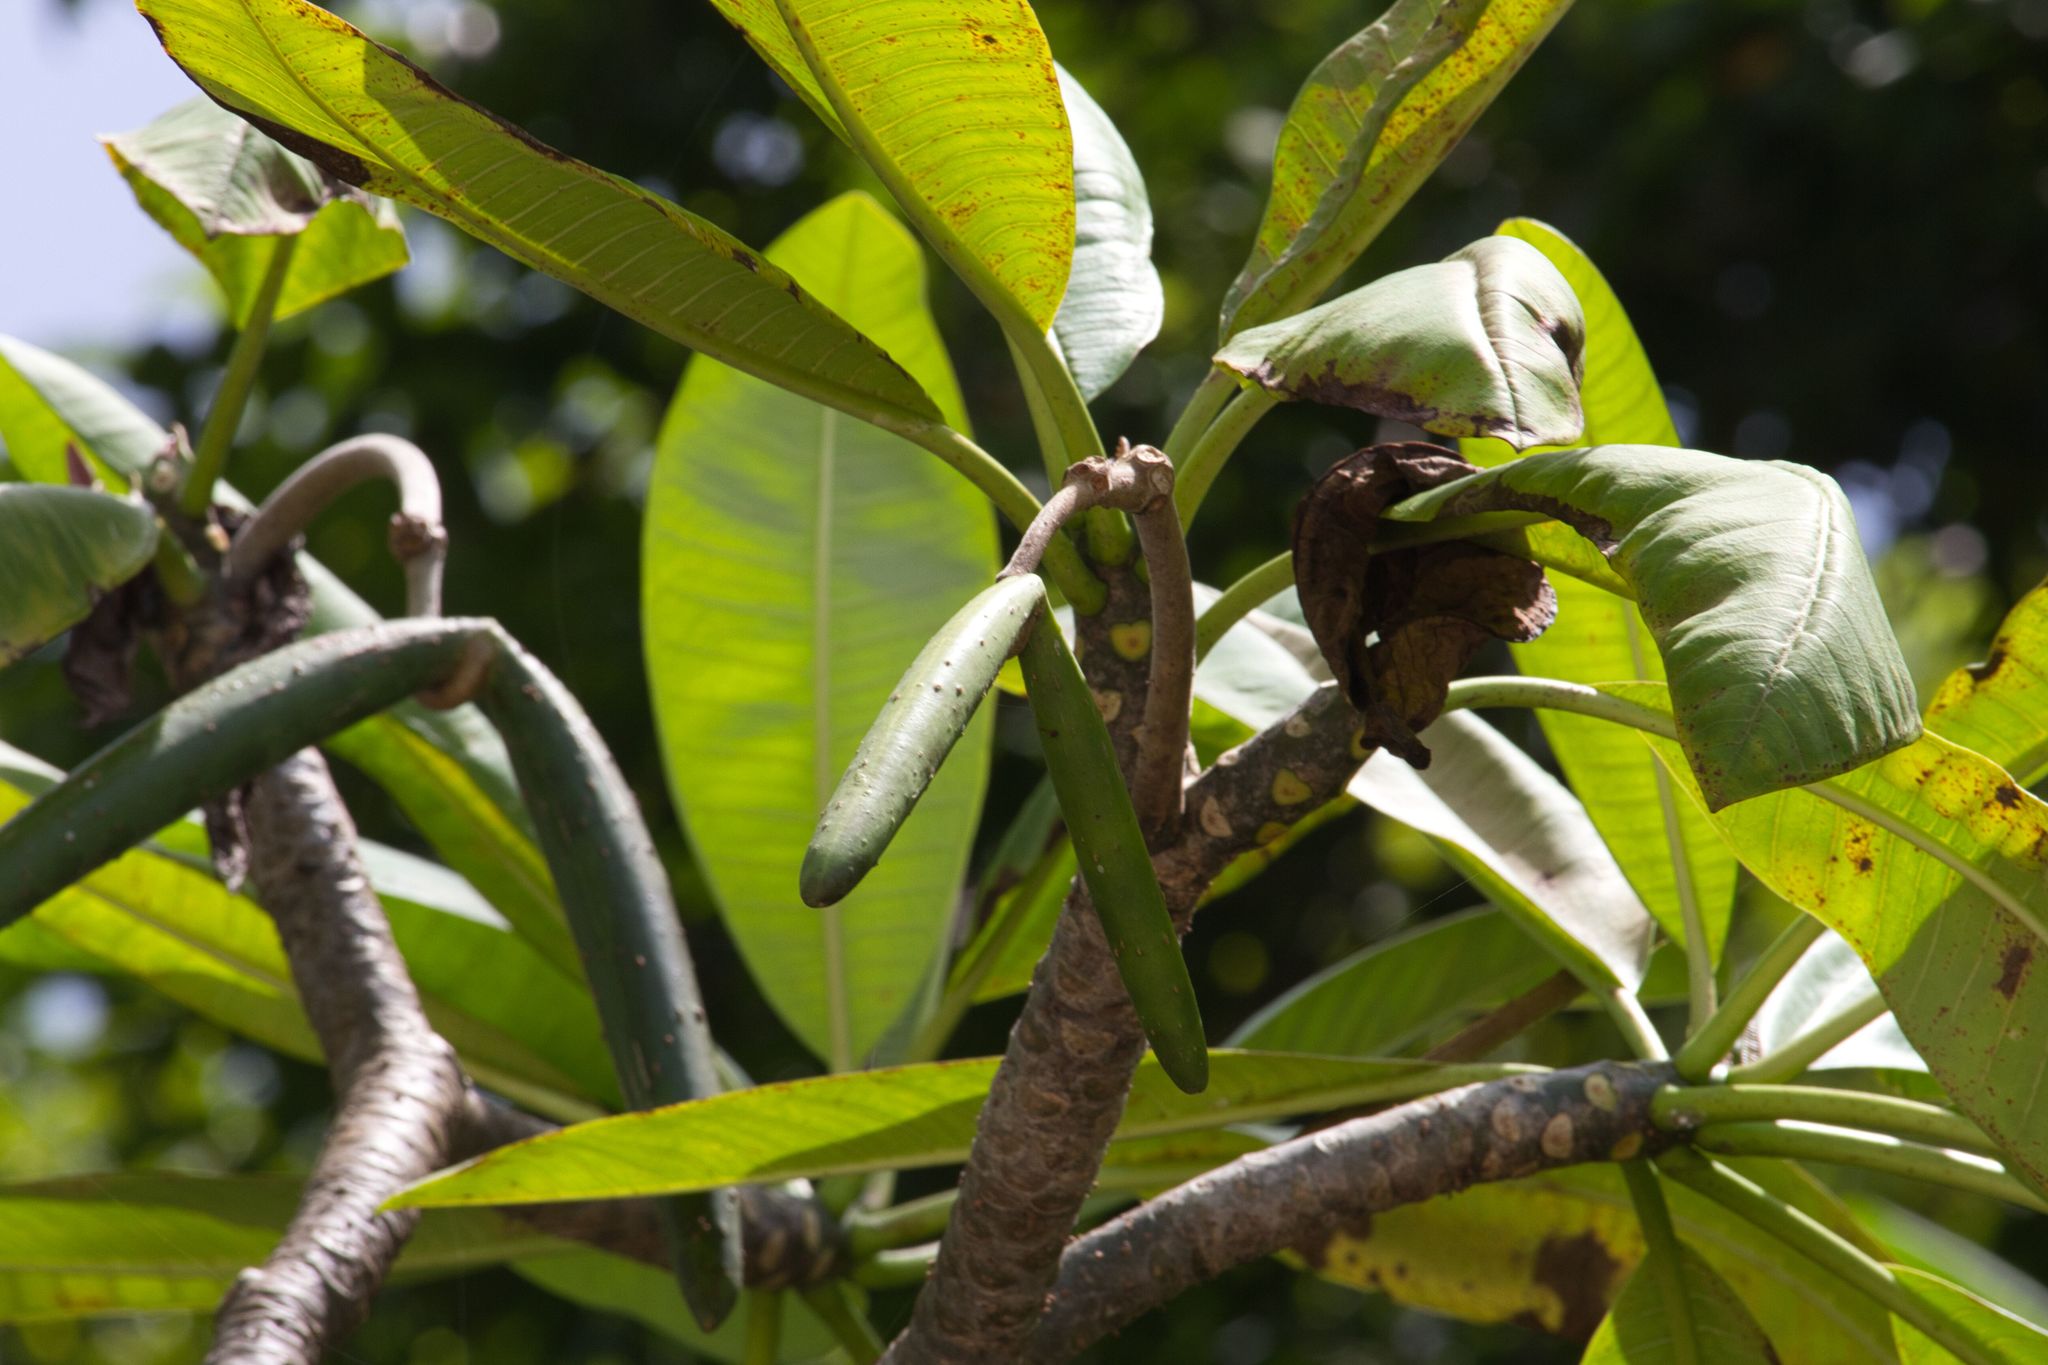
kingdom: Plantae
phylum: Tracheophyta
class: Magnoliopsida
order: Gentianales
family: Apocynaceae
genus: Plumeria
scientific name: Plumeria rubra
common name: Pagoda-tree
